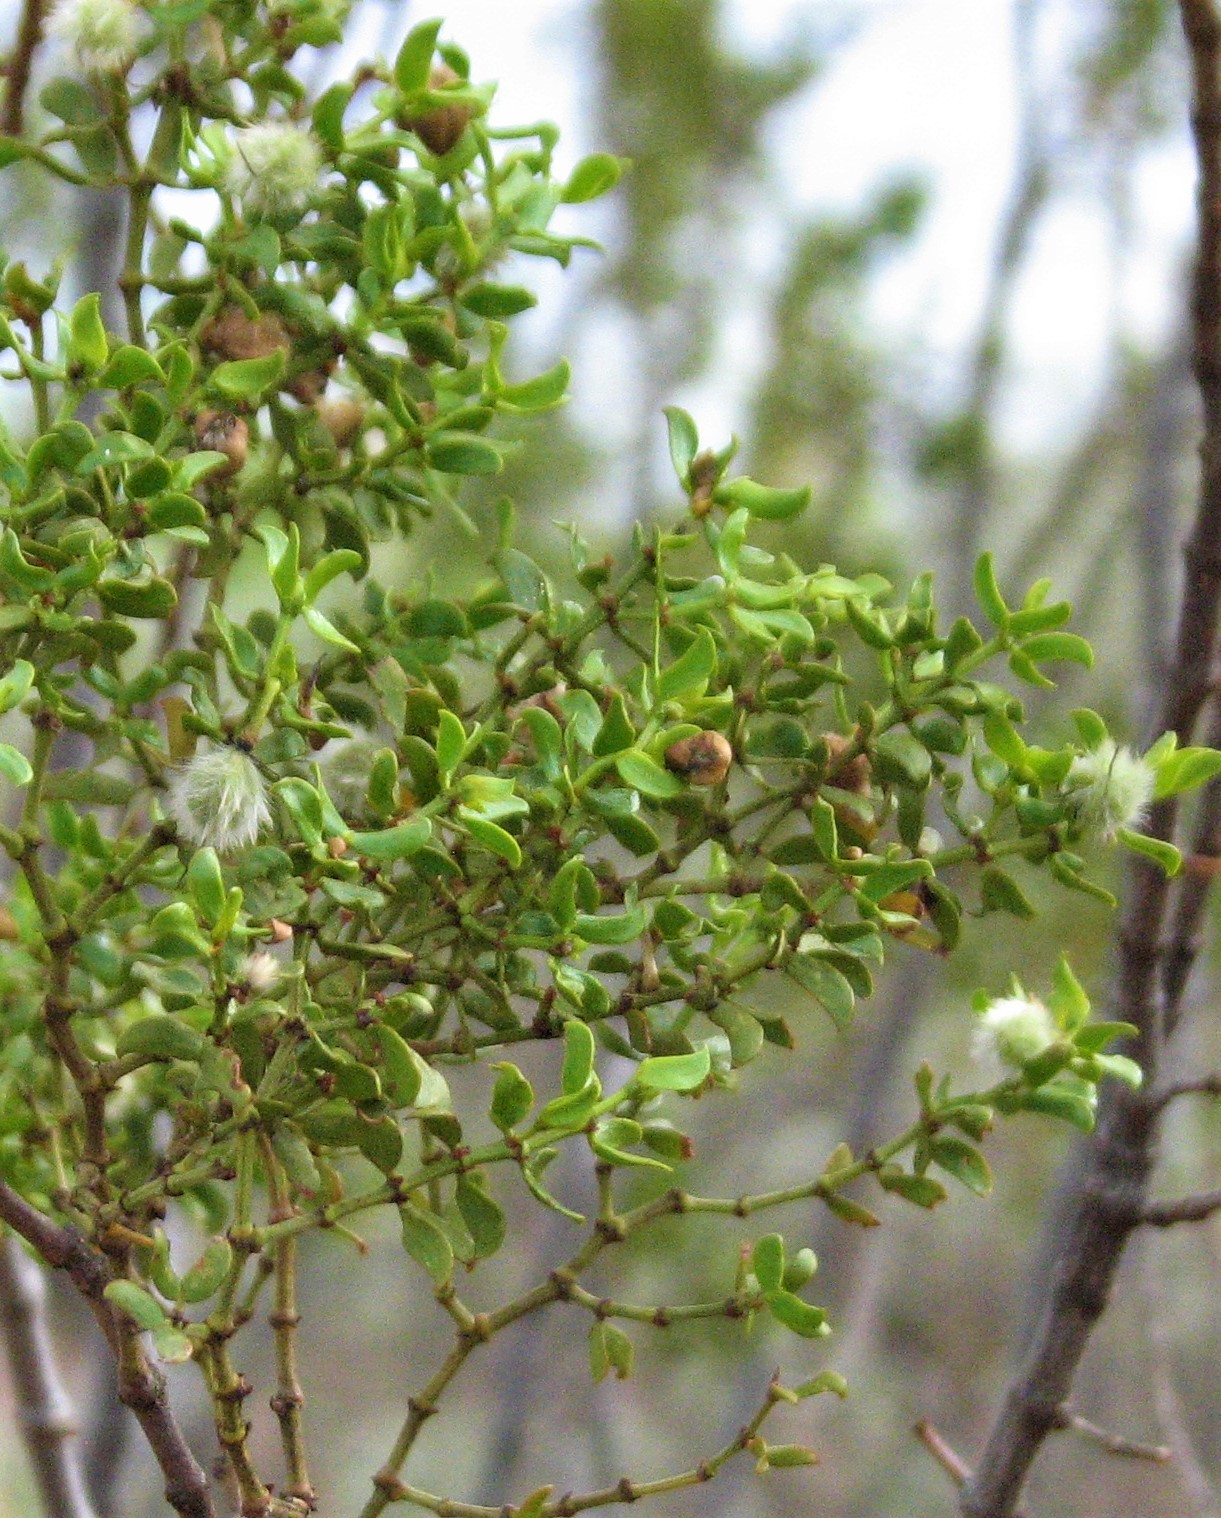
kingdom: Plantae
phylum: Tracheophyta
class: Magnoliopsida
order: Zygophyllales
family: Zygophyllaceae
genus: Larrea
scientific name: Larrea tridentata
